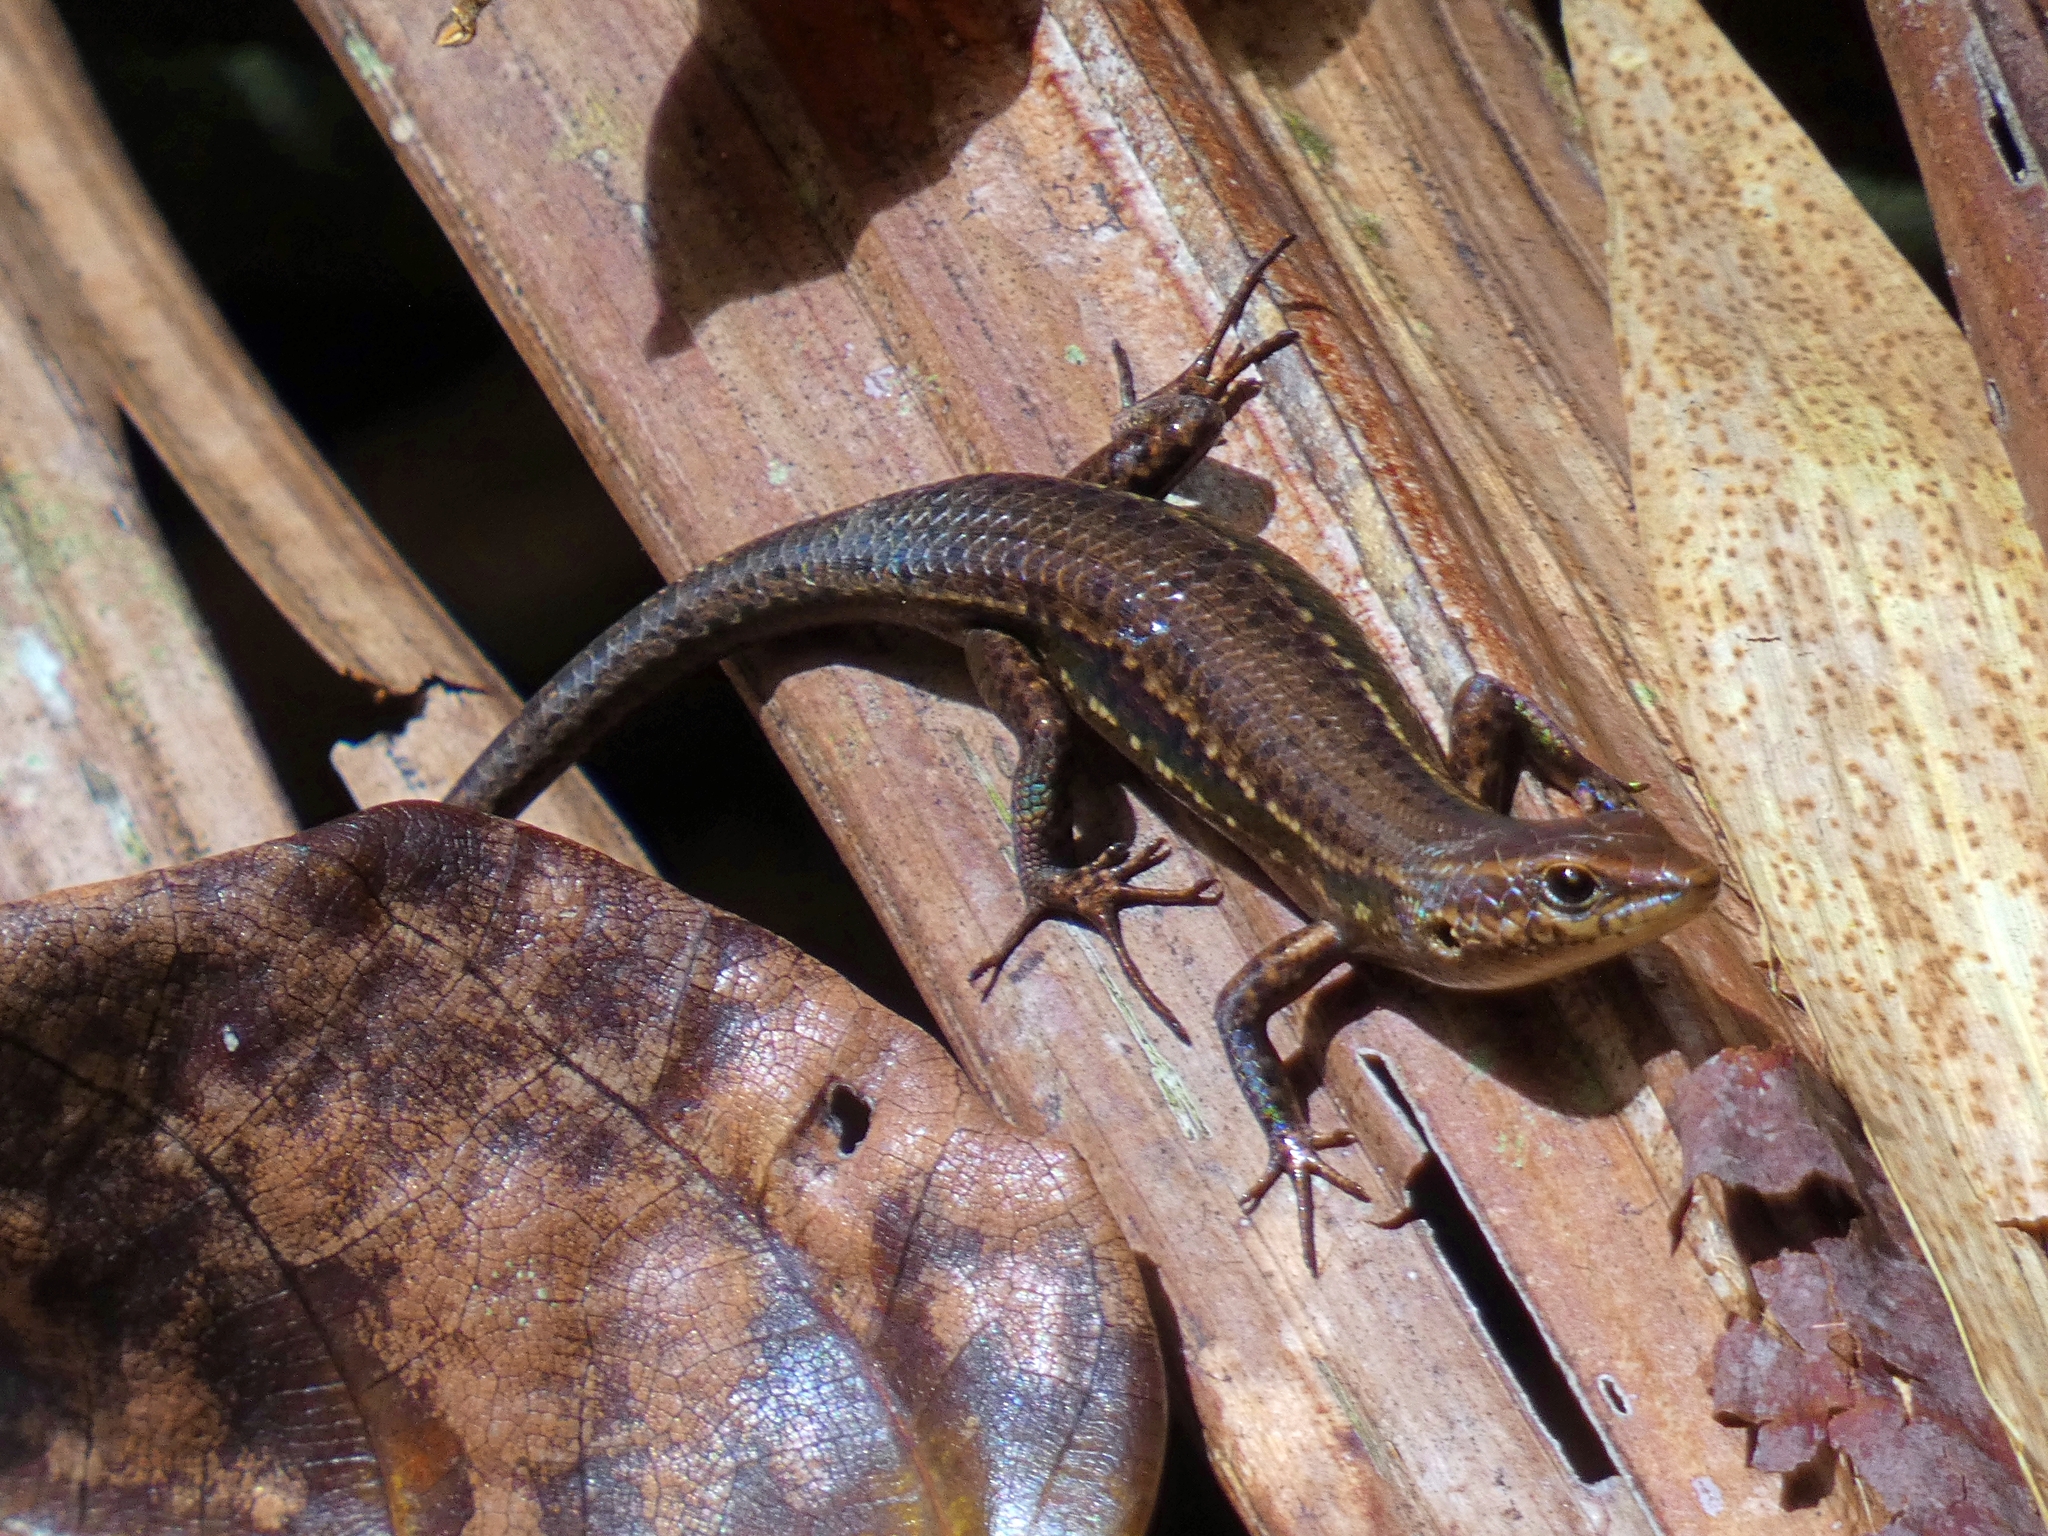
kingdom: Animalia
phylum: Chordata
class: Squamata
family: Scincidae
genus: Carlia
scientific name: Carlia crypta
